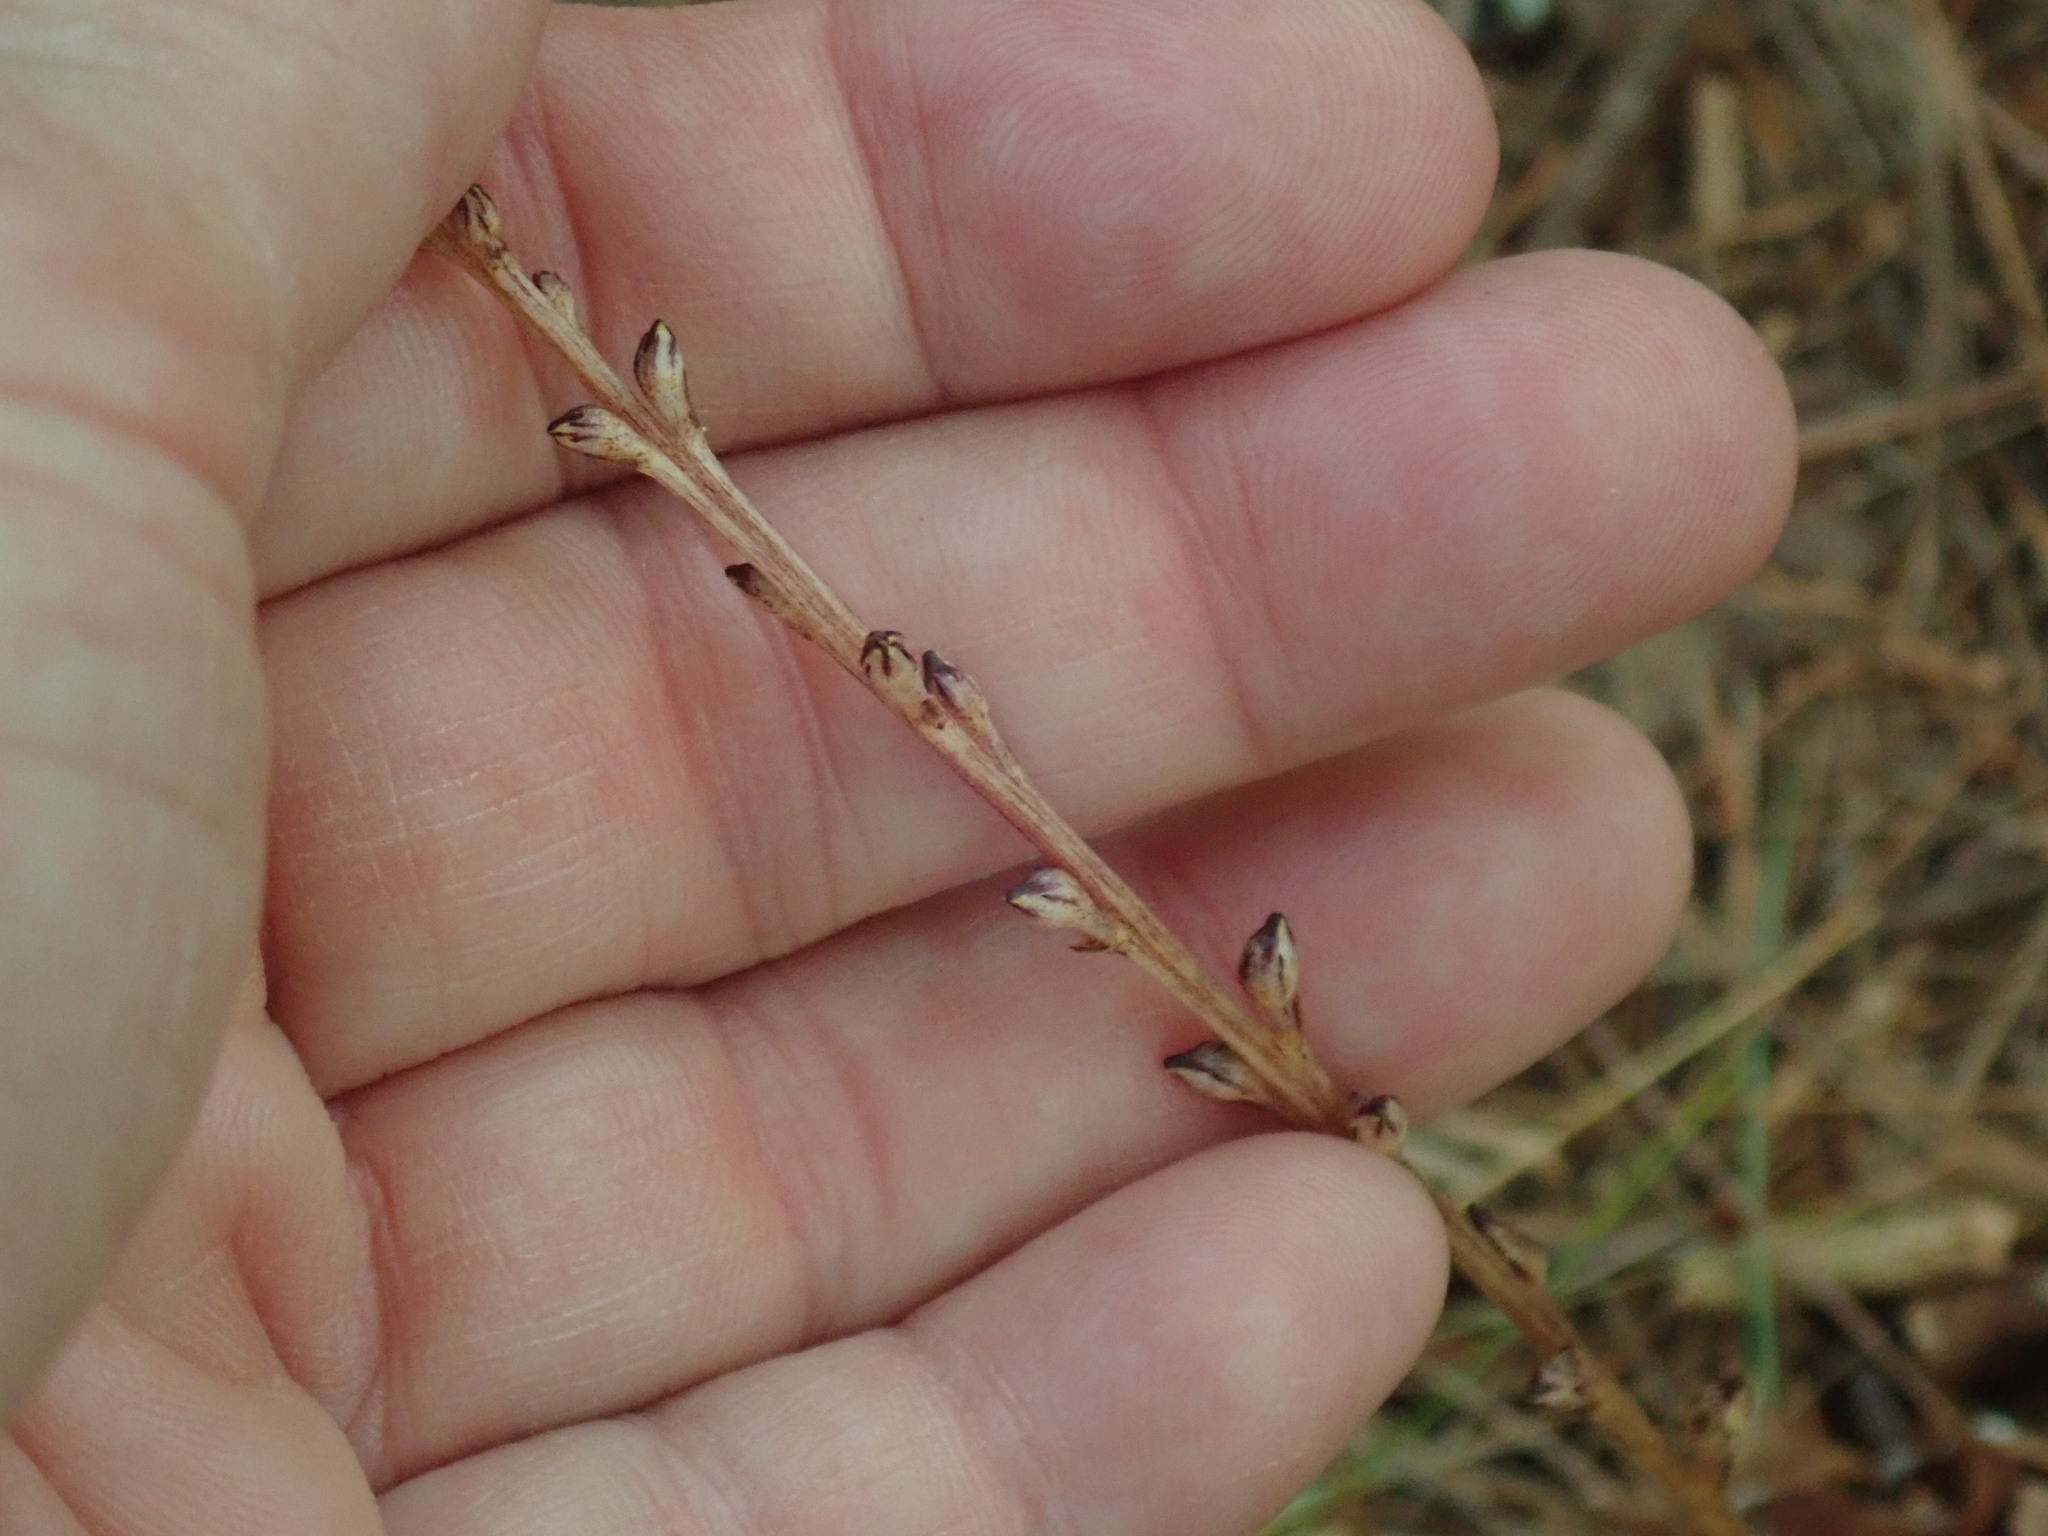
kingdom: Plantae
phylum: Tracheophyta
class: Magnoliopsida
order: Lamiales
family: Orobanchaceae
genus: Epifagus
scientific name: Epifagus virginiana
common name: Beechdrops
